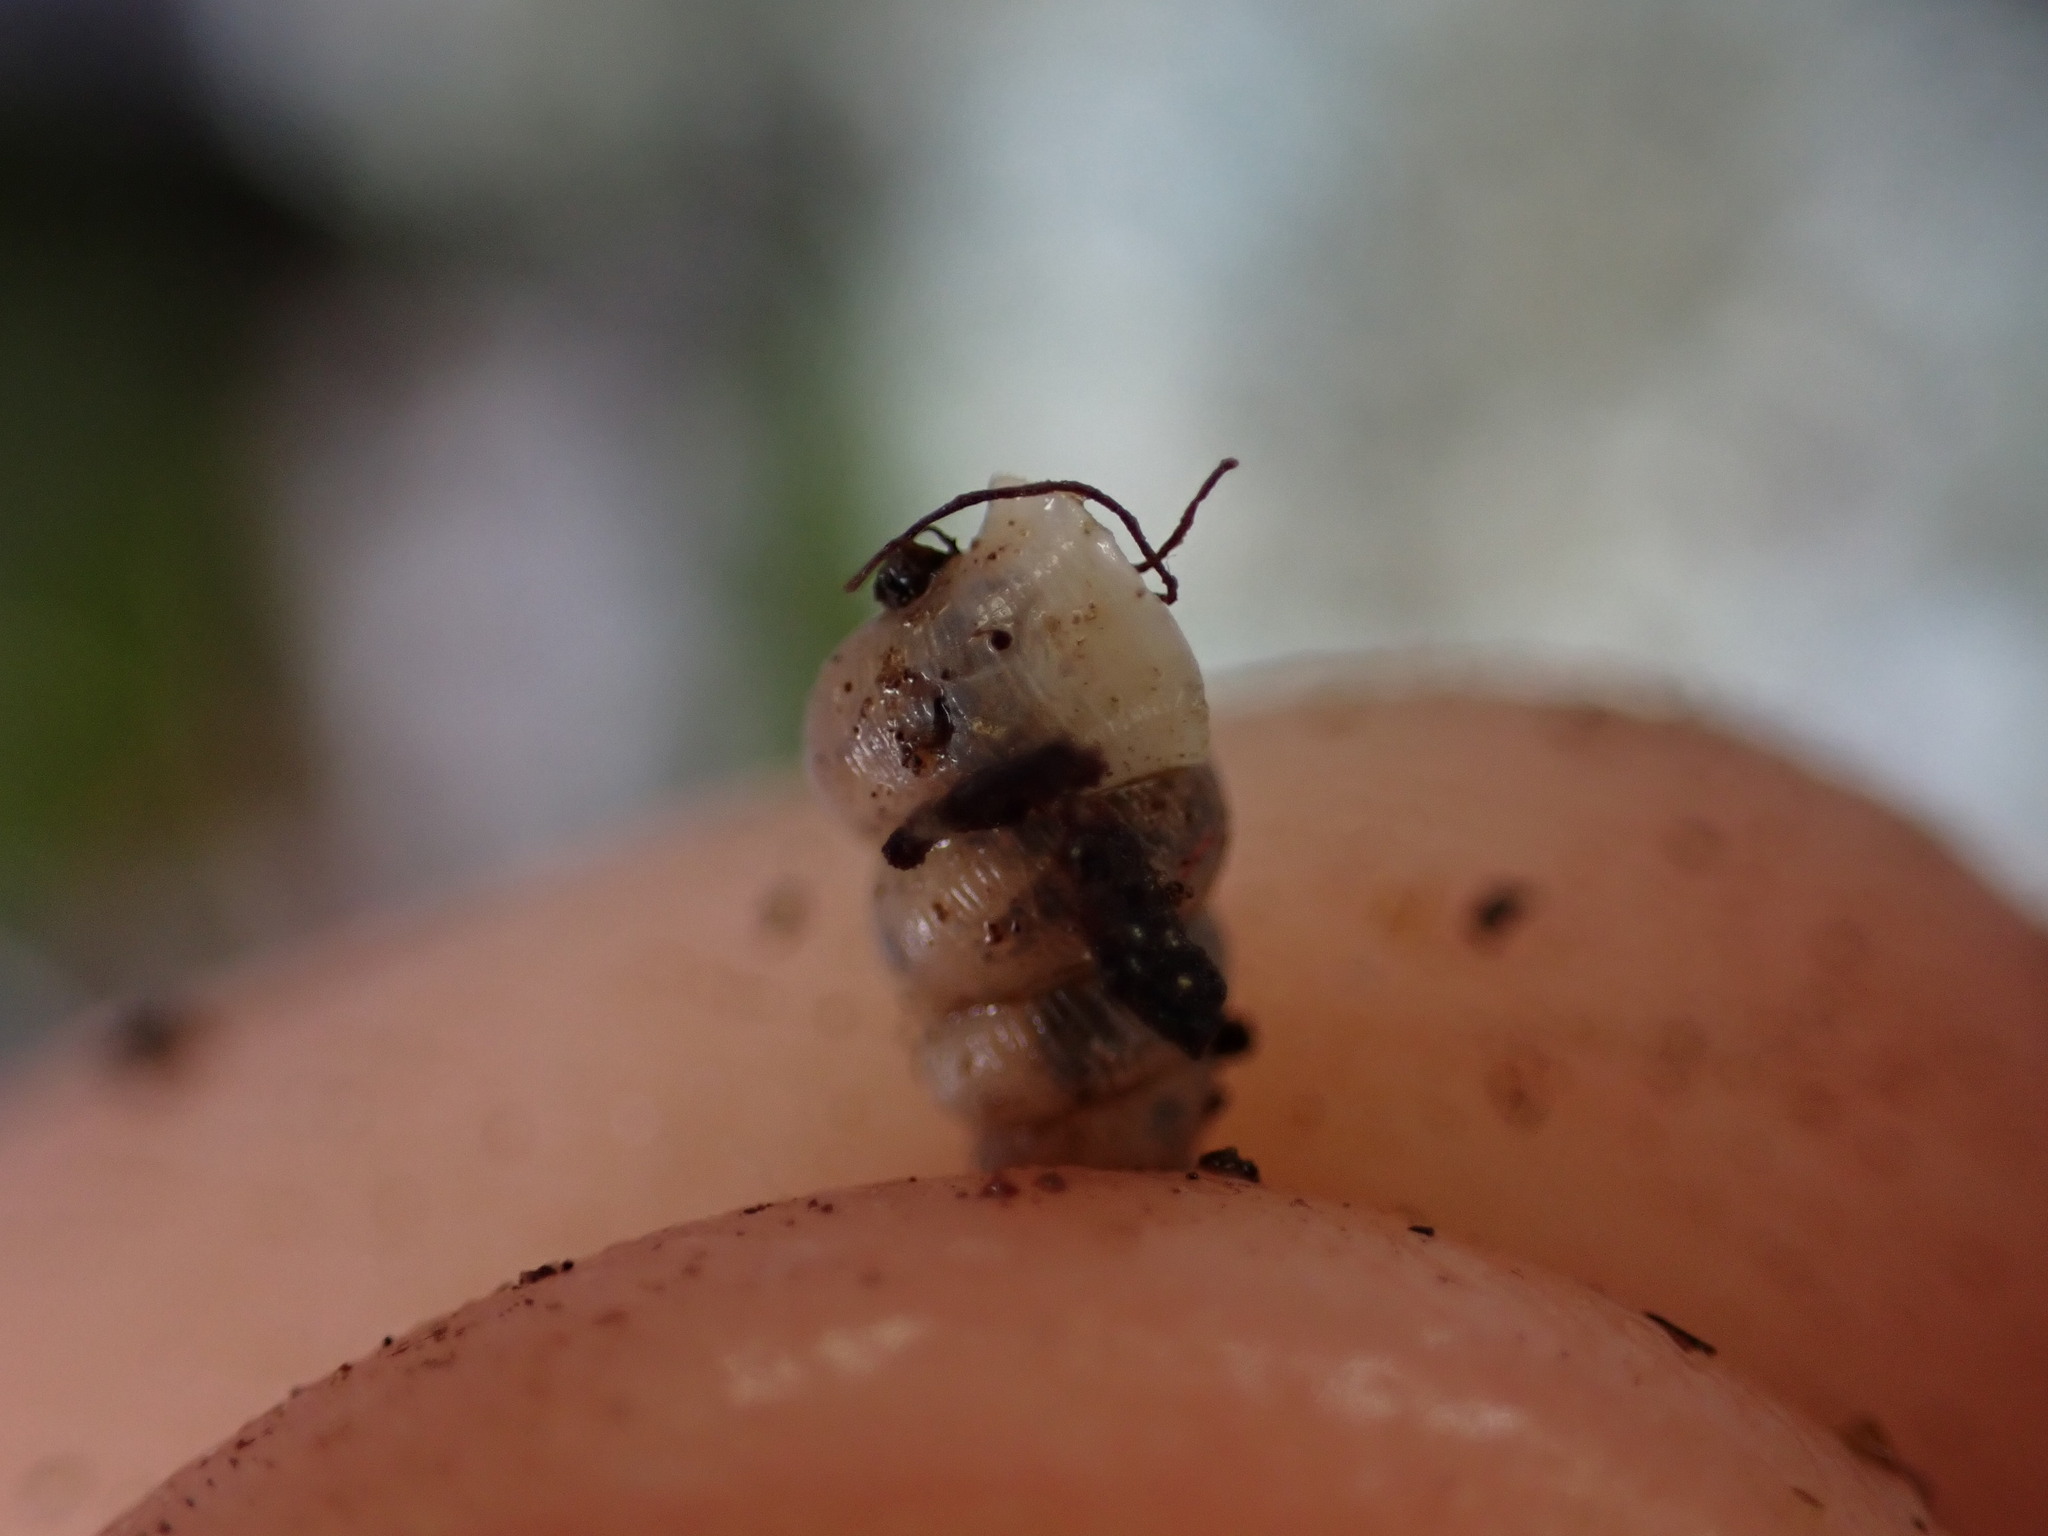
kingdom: Animalia
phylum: Mollusca
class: Gastropoda
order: Architaenioglossa
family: Cochlostomatidae
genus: Cochlostoma
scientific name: Cochlostoma patulum
